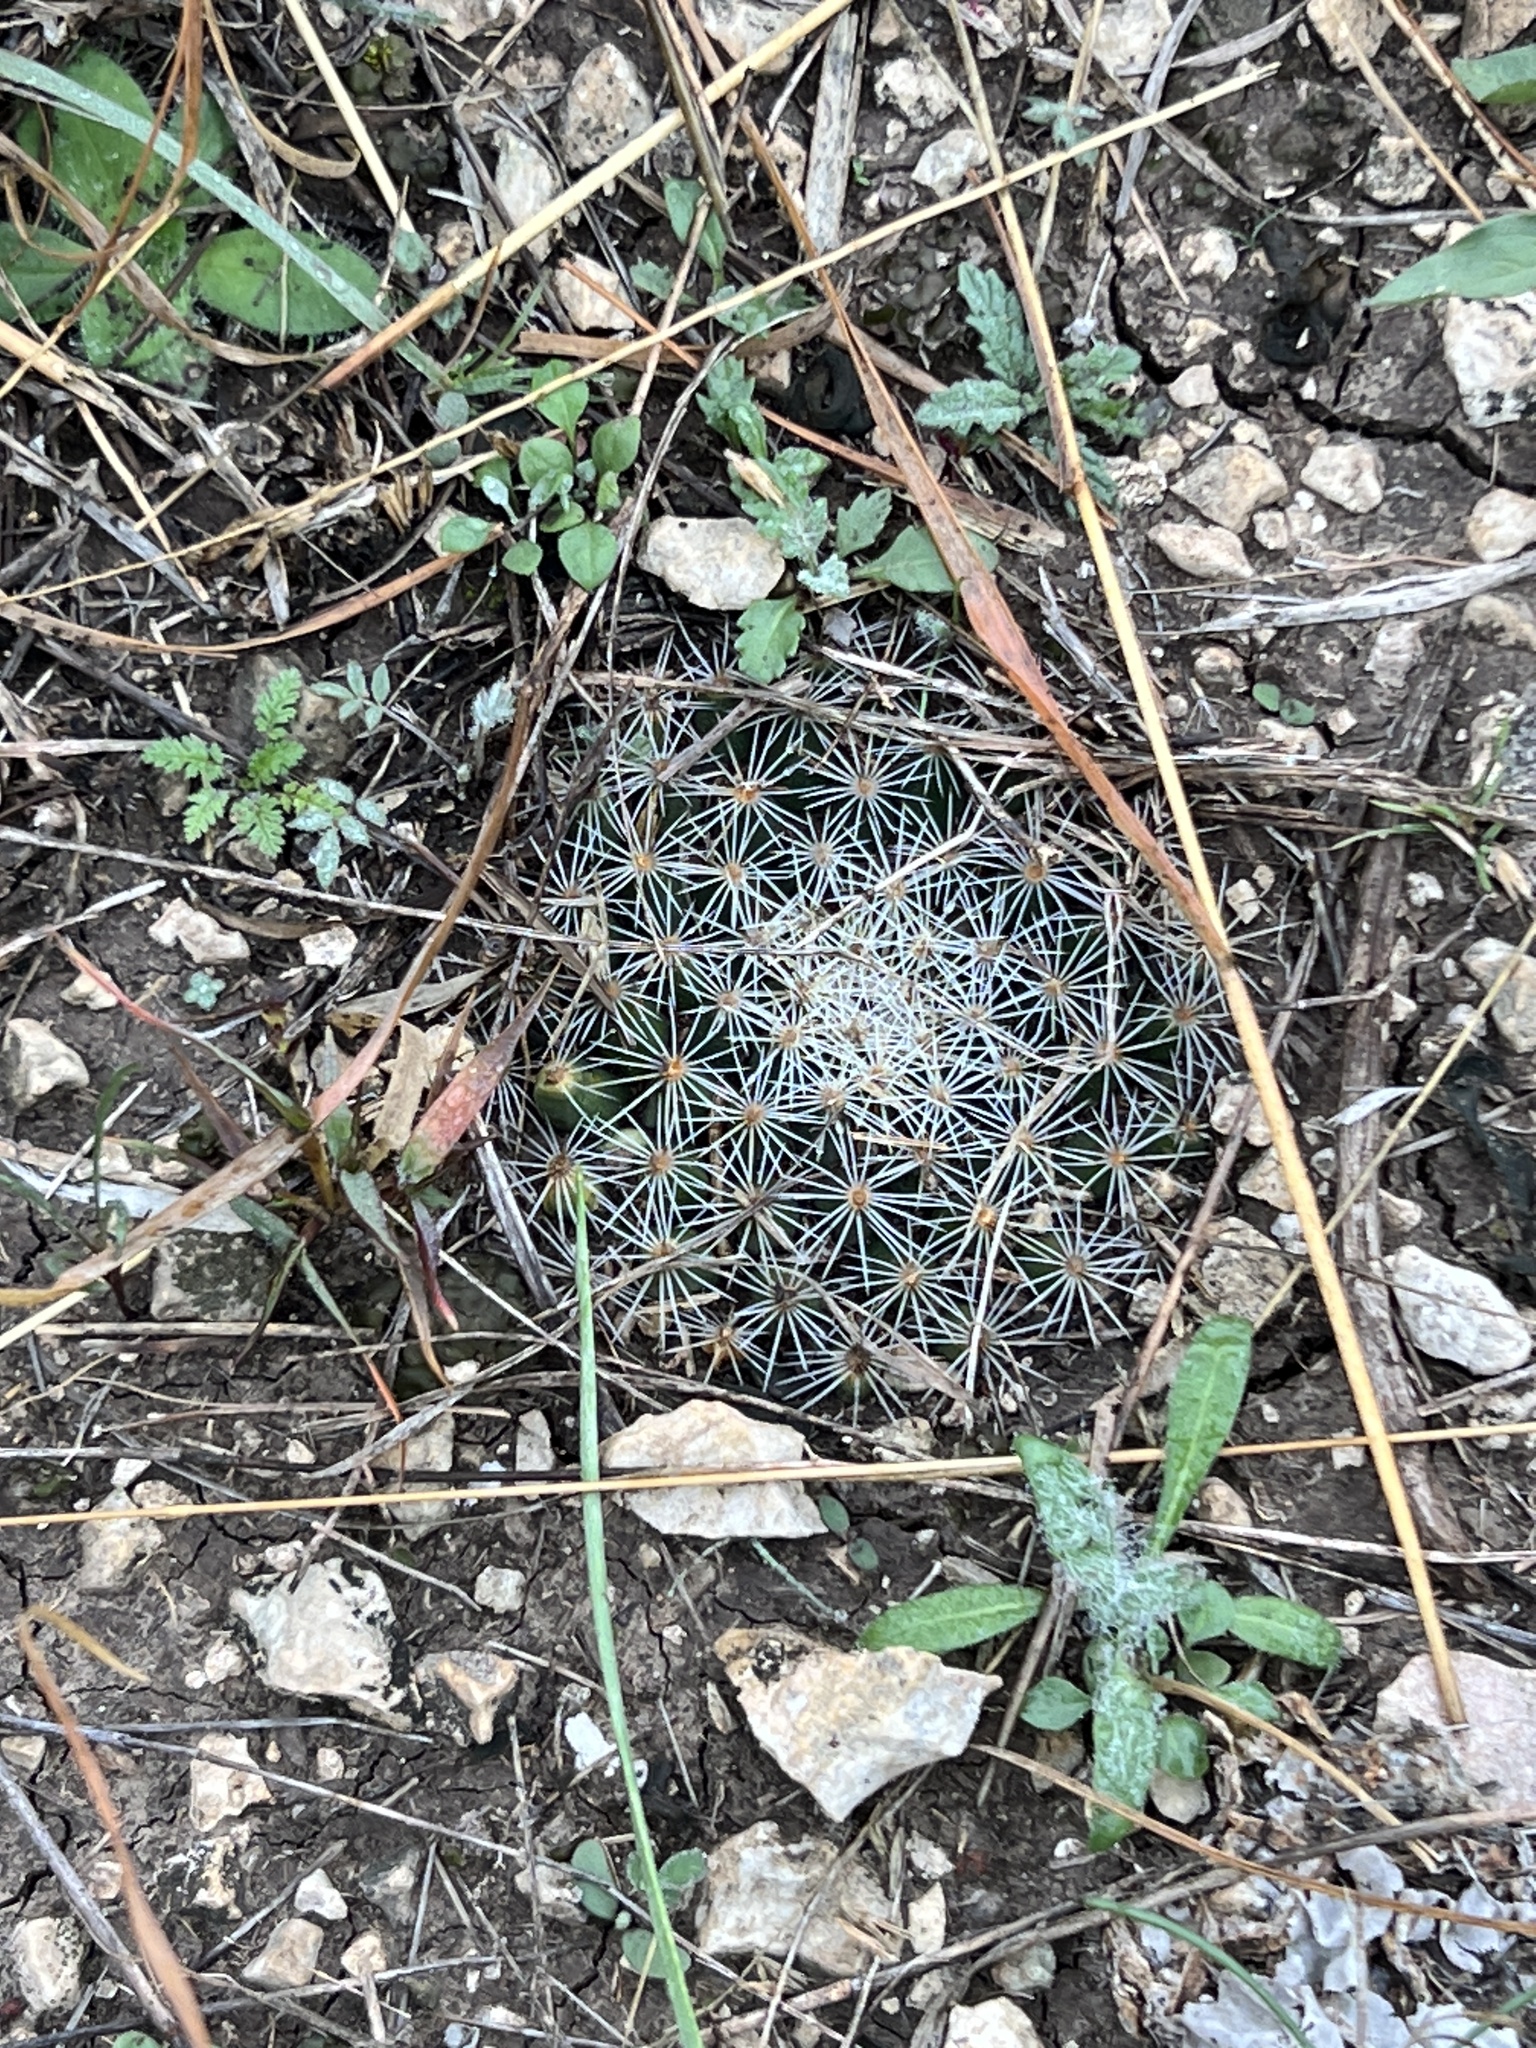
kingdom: Plantae
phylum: Tracheophyta
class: Magnoliopsida
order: Caryophyllales
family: Cactaceae
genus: Mammillaria
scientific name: Mammillaria heyderi
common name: Little nipple cactus
